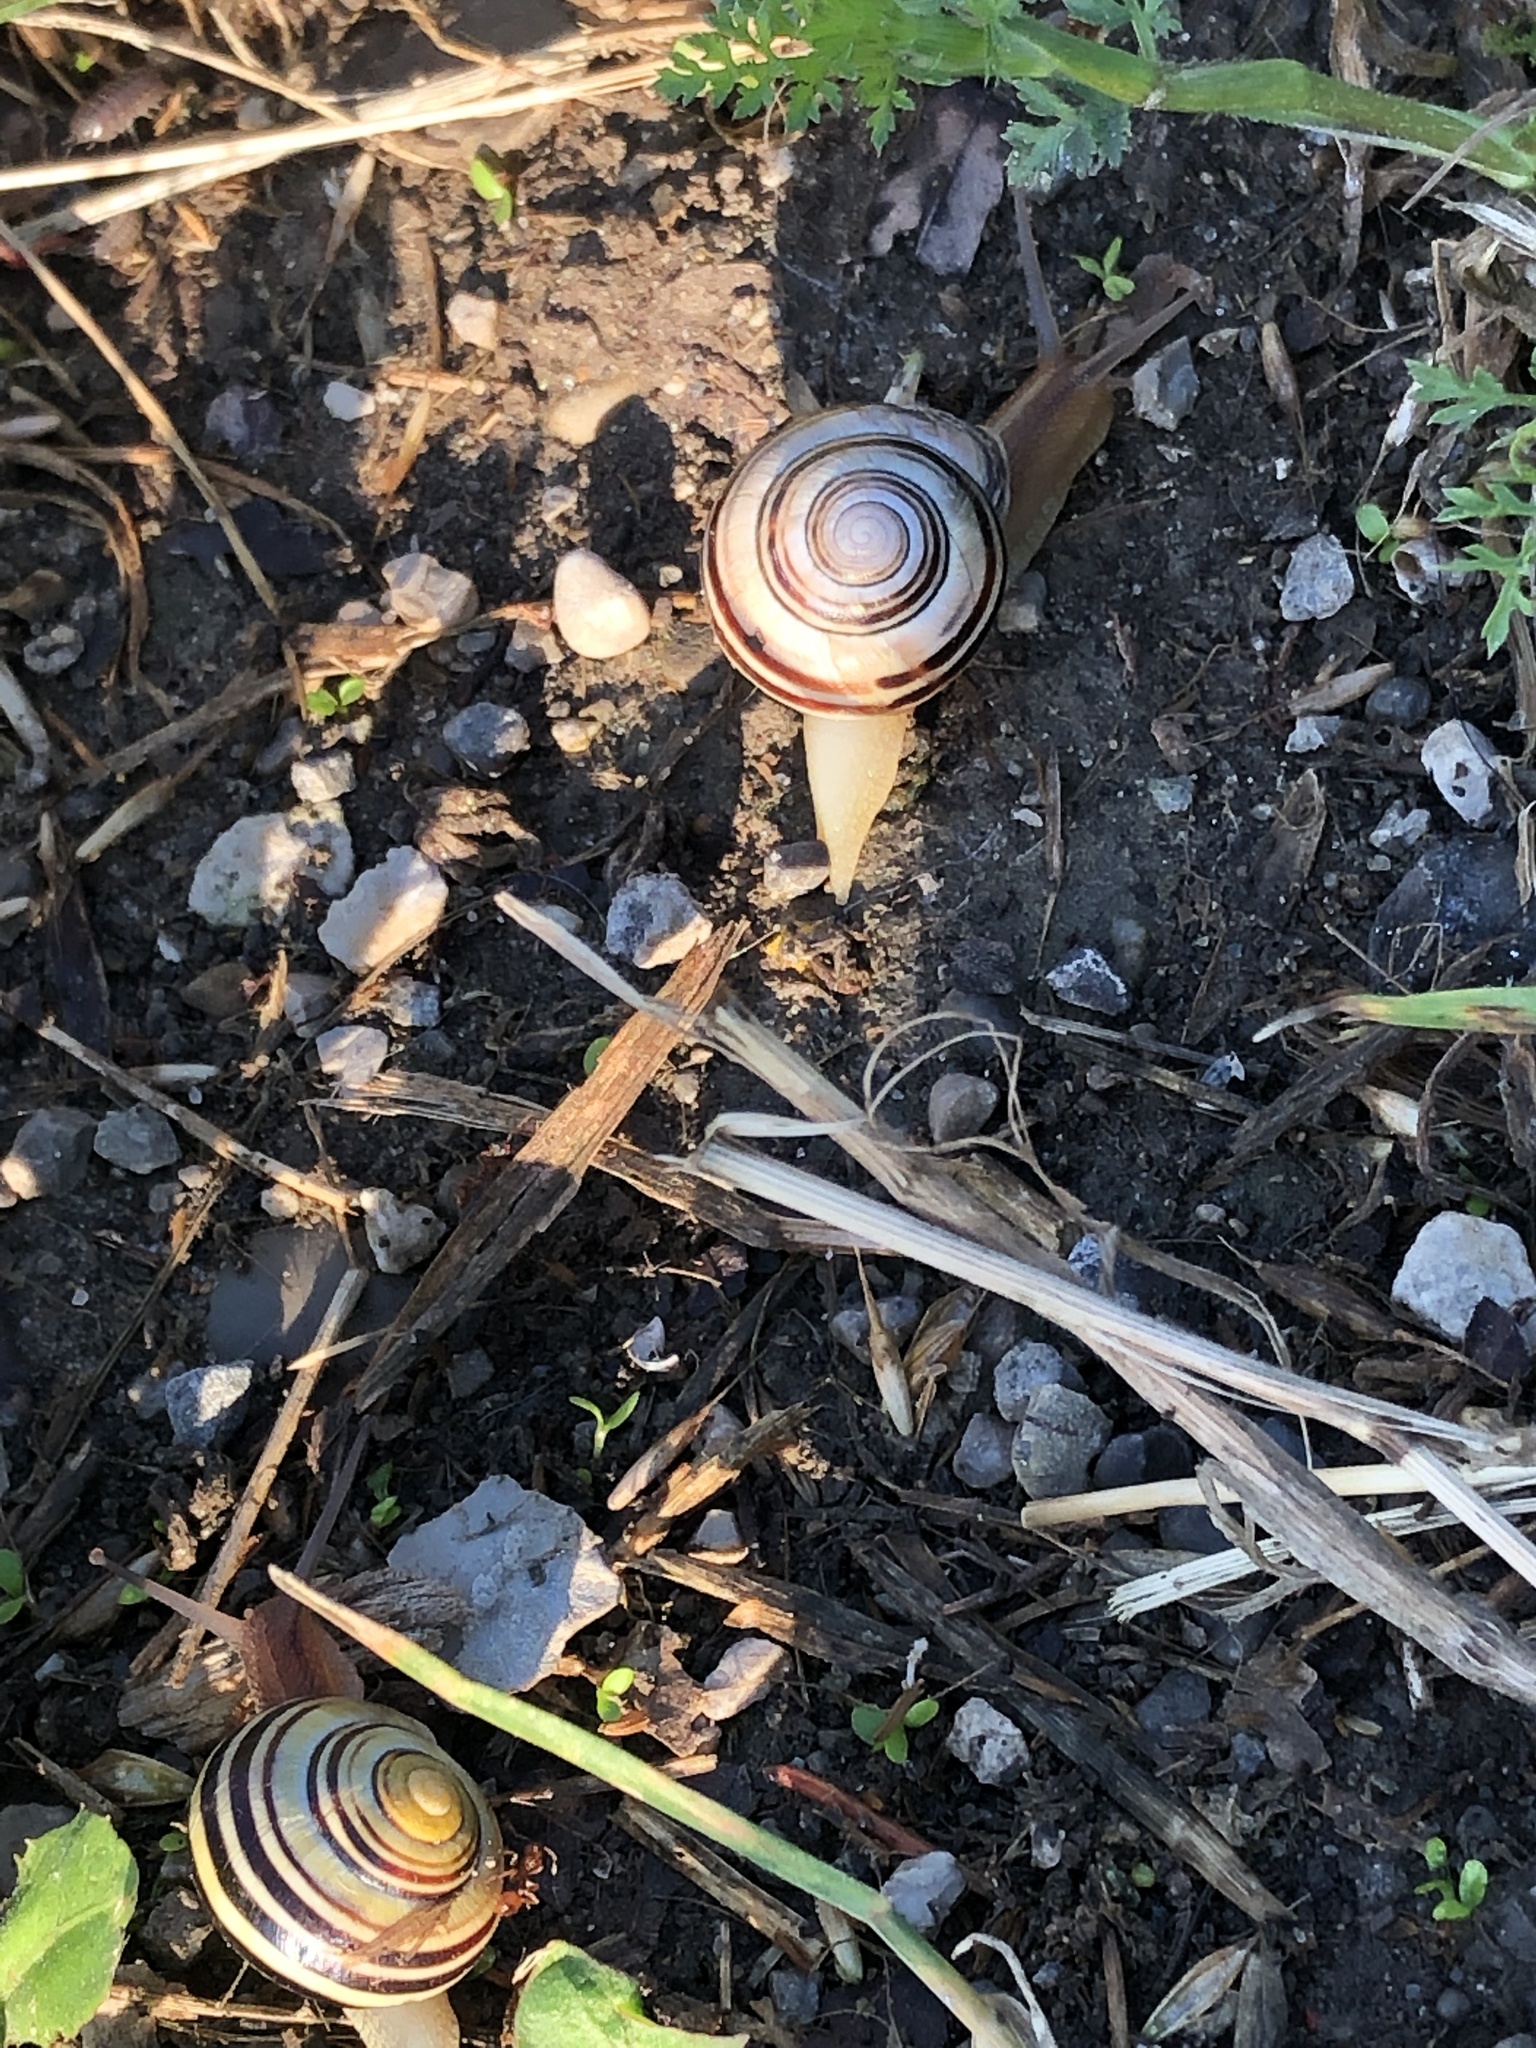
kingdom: Animalia
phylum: Mollusca
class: Gastropoda
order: Stylommatophora
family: Helicidae
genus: Cepaea
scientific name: Cepaea nemoralis
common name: Grovesnail
